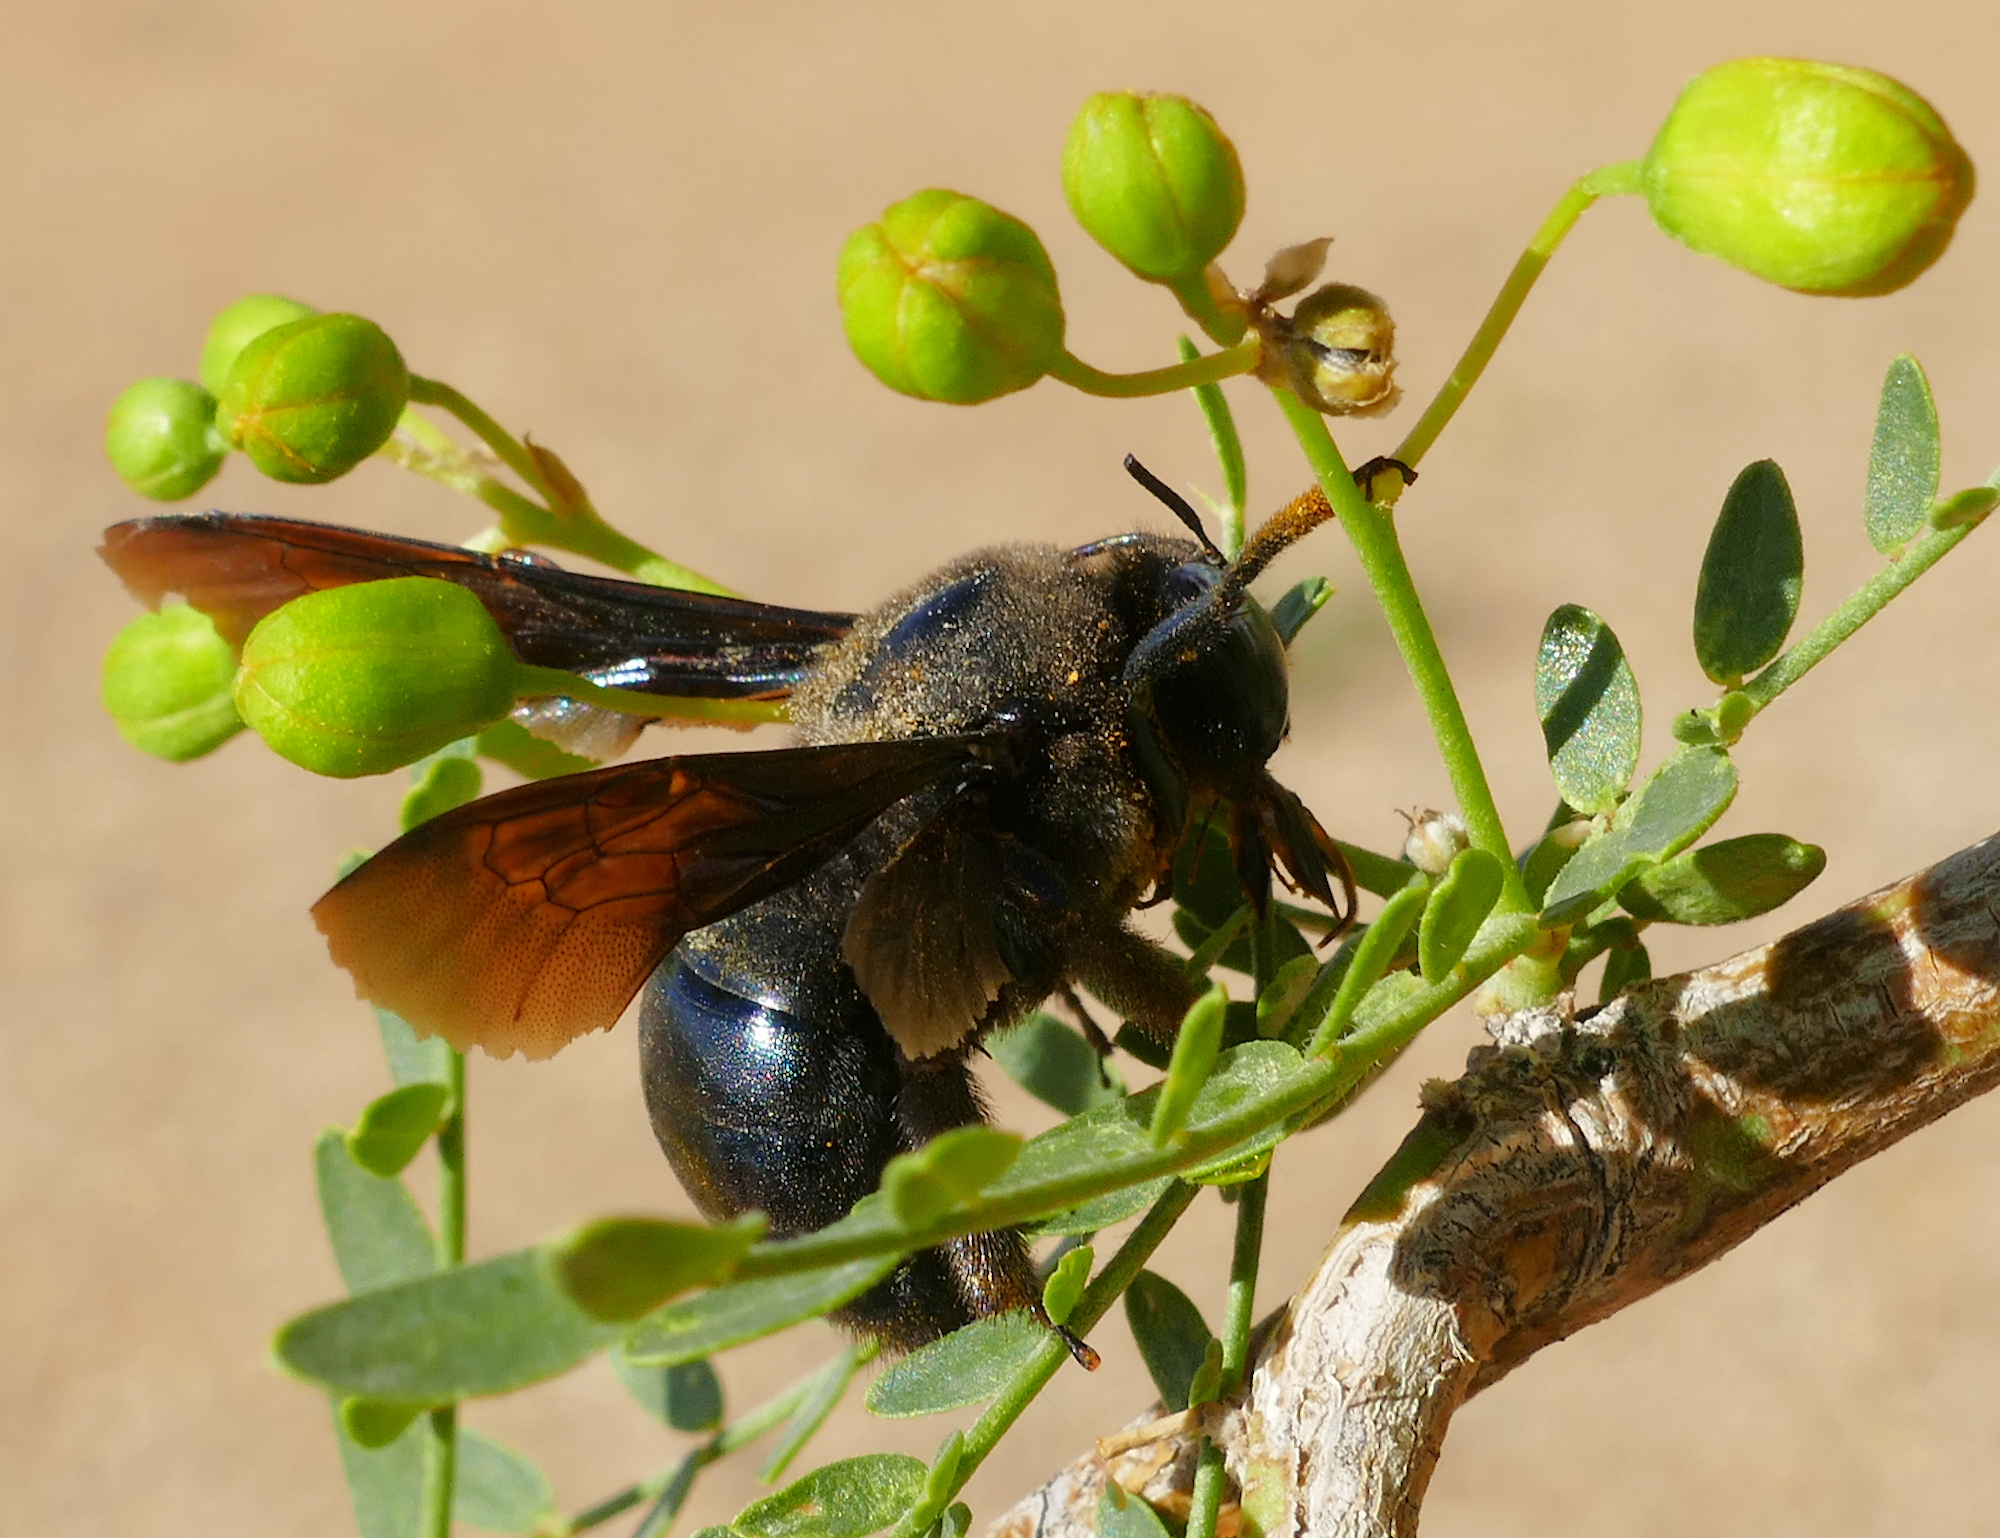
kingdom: Animalia
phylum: Arthropoda
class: Insecta
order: Hymenoptera
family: Apidae
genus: Xylocopa
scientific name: Xylocopa californica
